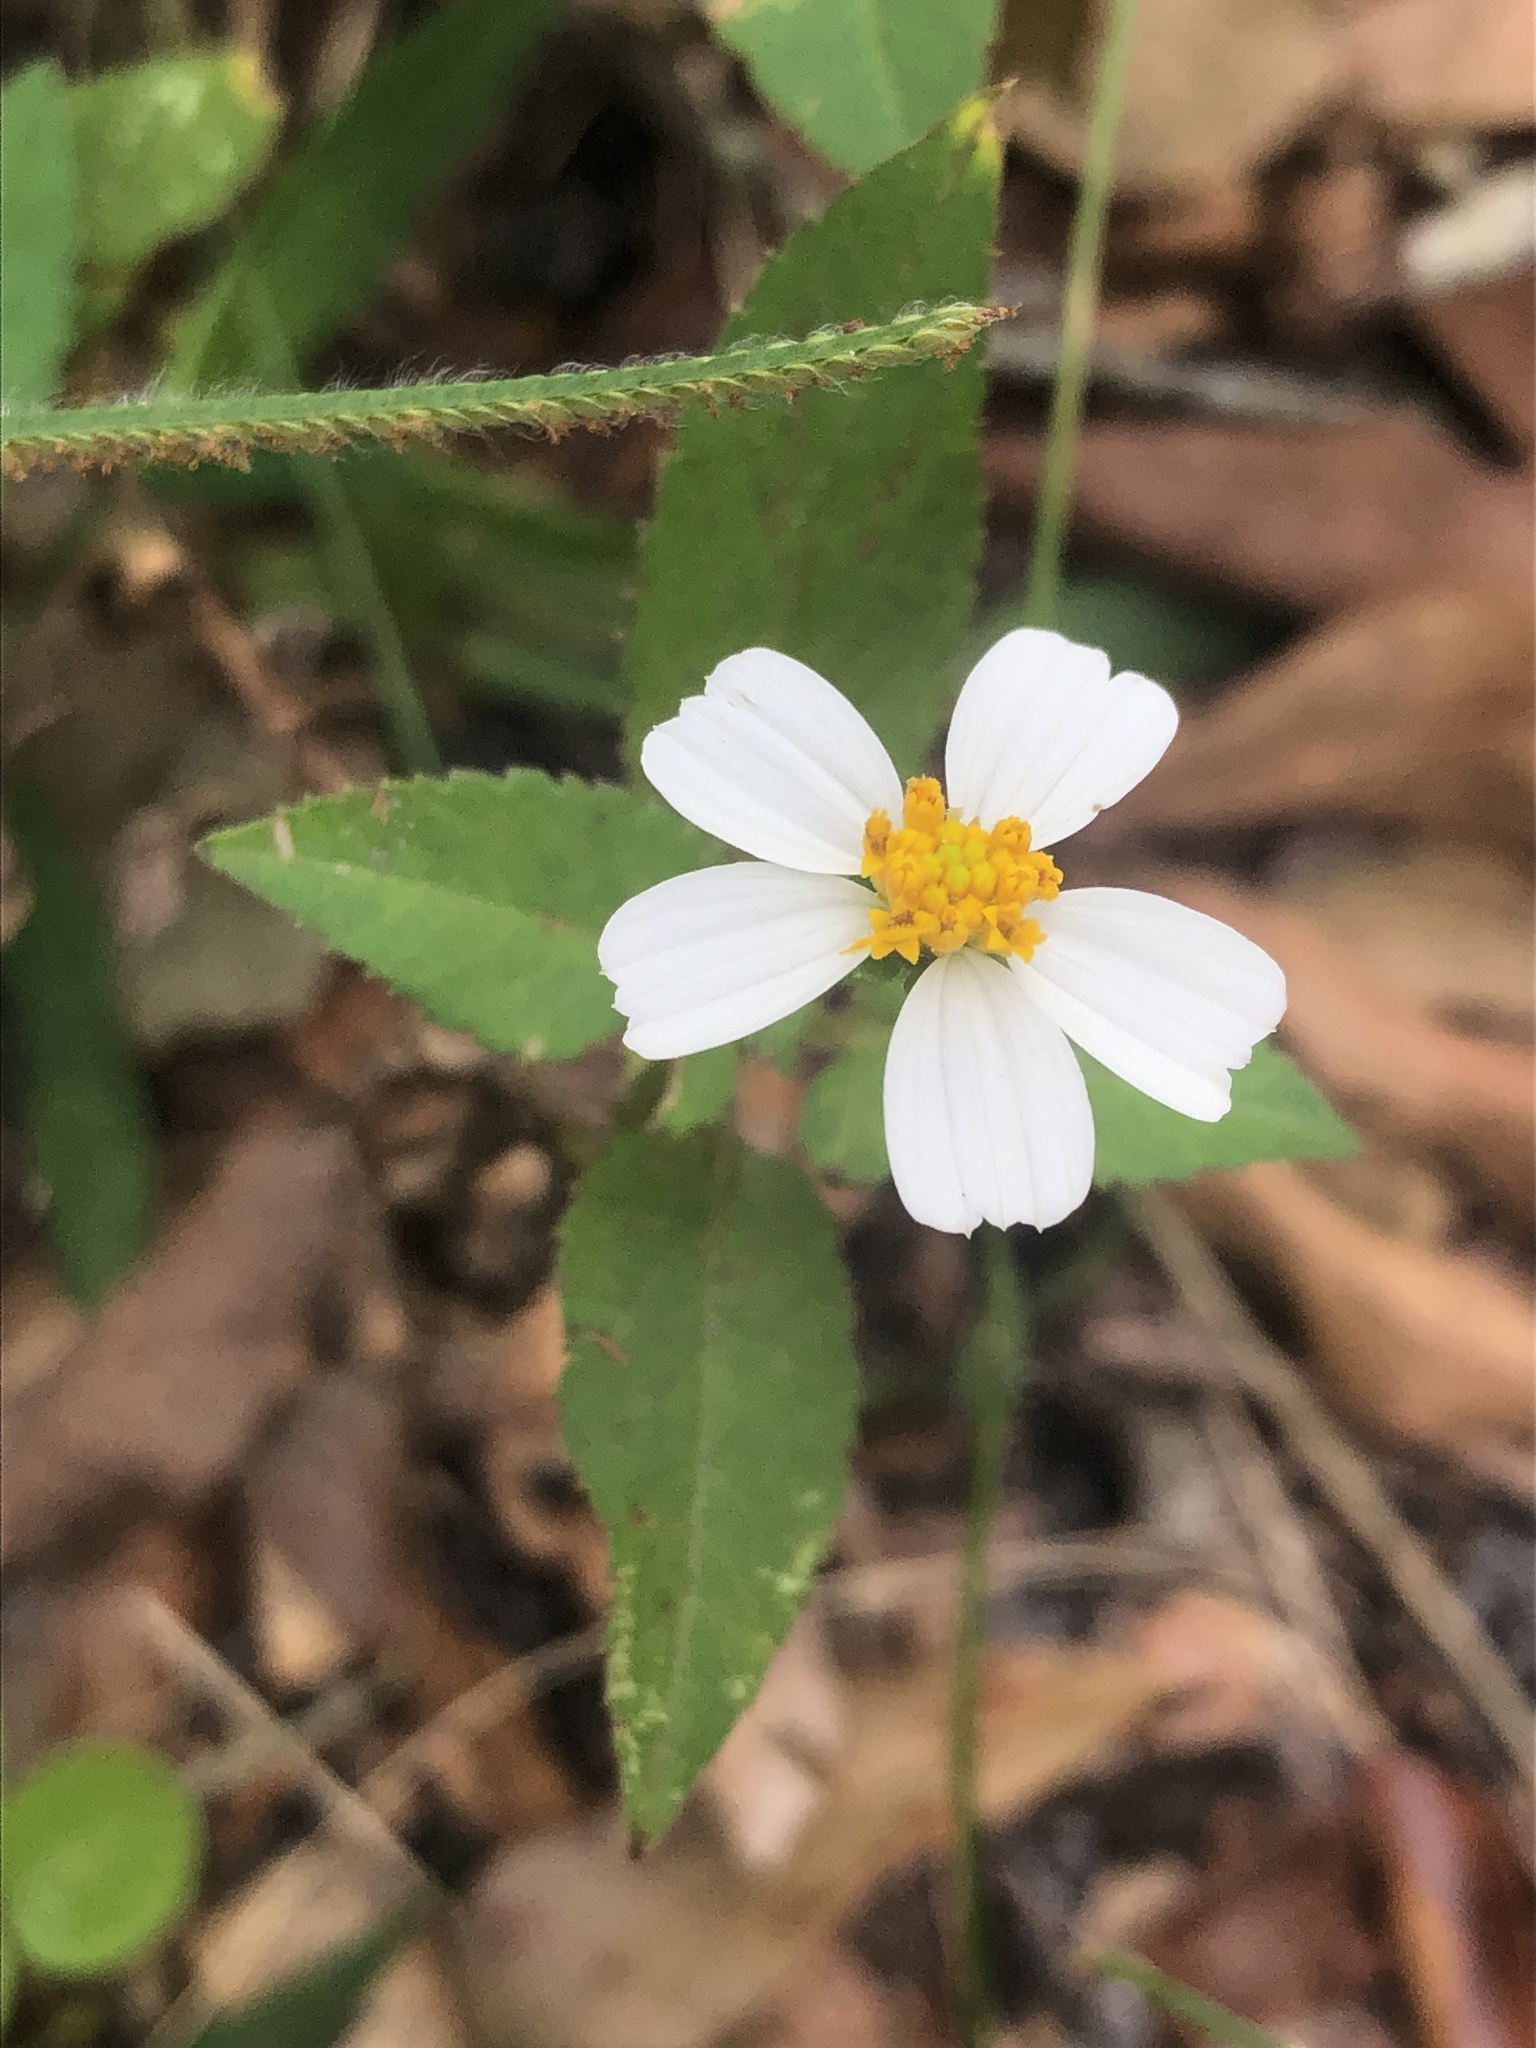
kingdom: Plantae
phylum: Tracheophyta
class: Magnoliopsida
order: Asterales
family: Asteraceae
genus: Bidens
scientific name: Bidens alba
